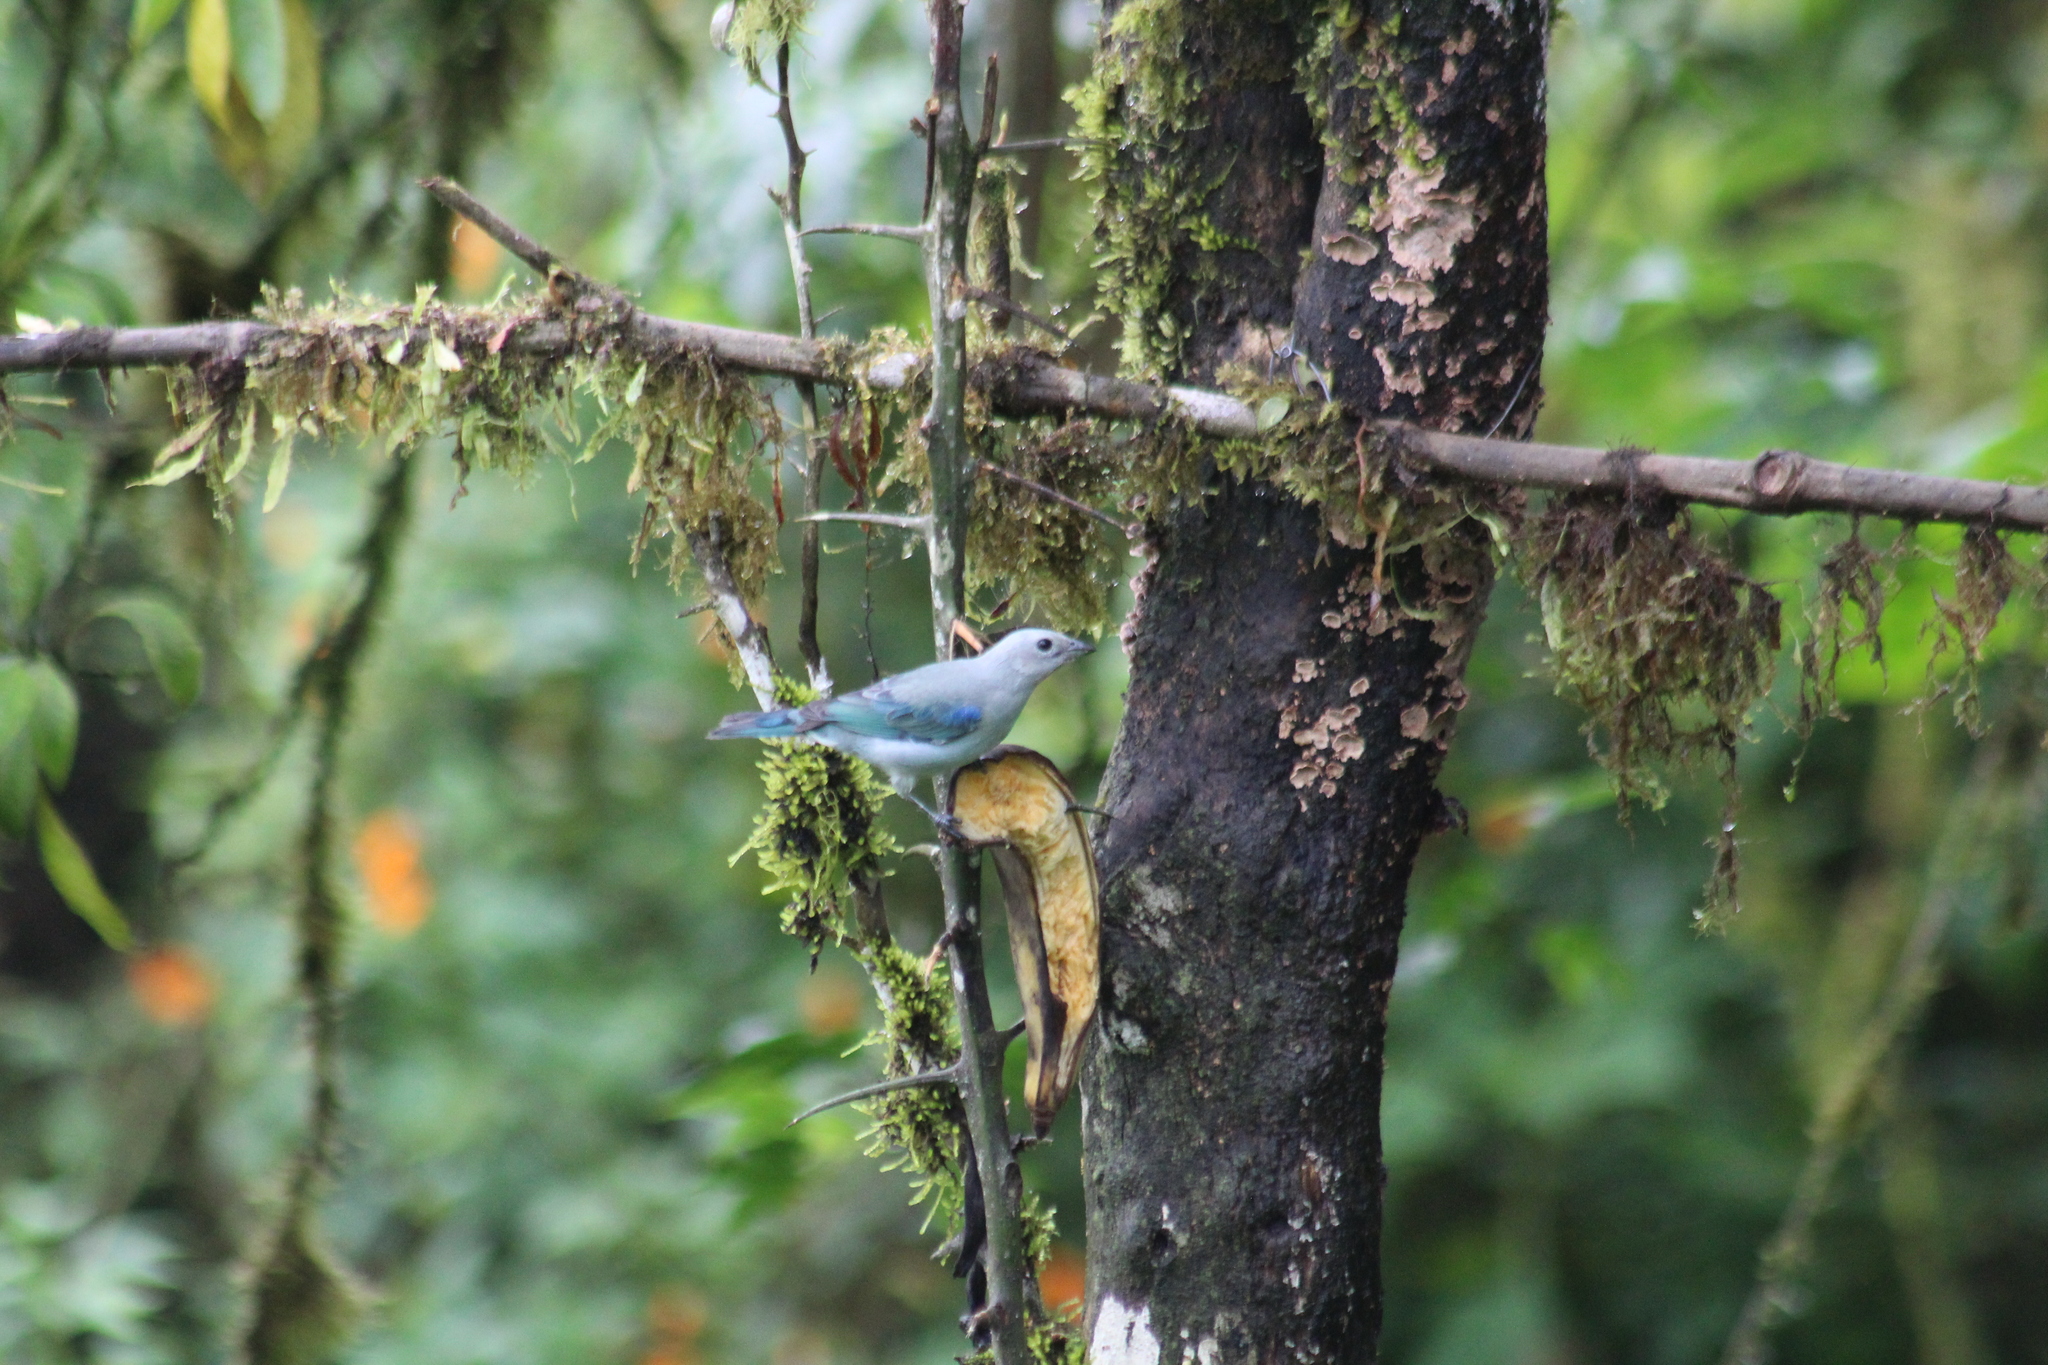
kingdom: Animalia
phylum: Chordata
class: Aves
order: Passeriformes
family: Thraupidae
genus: Thraupis
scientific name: Thraupis episcopus
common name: Blue-grey tanager
